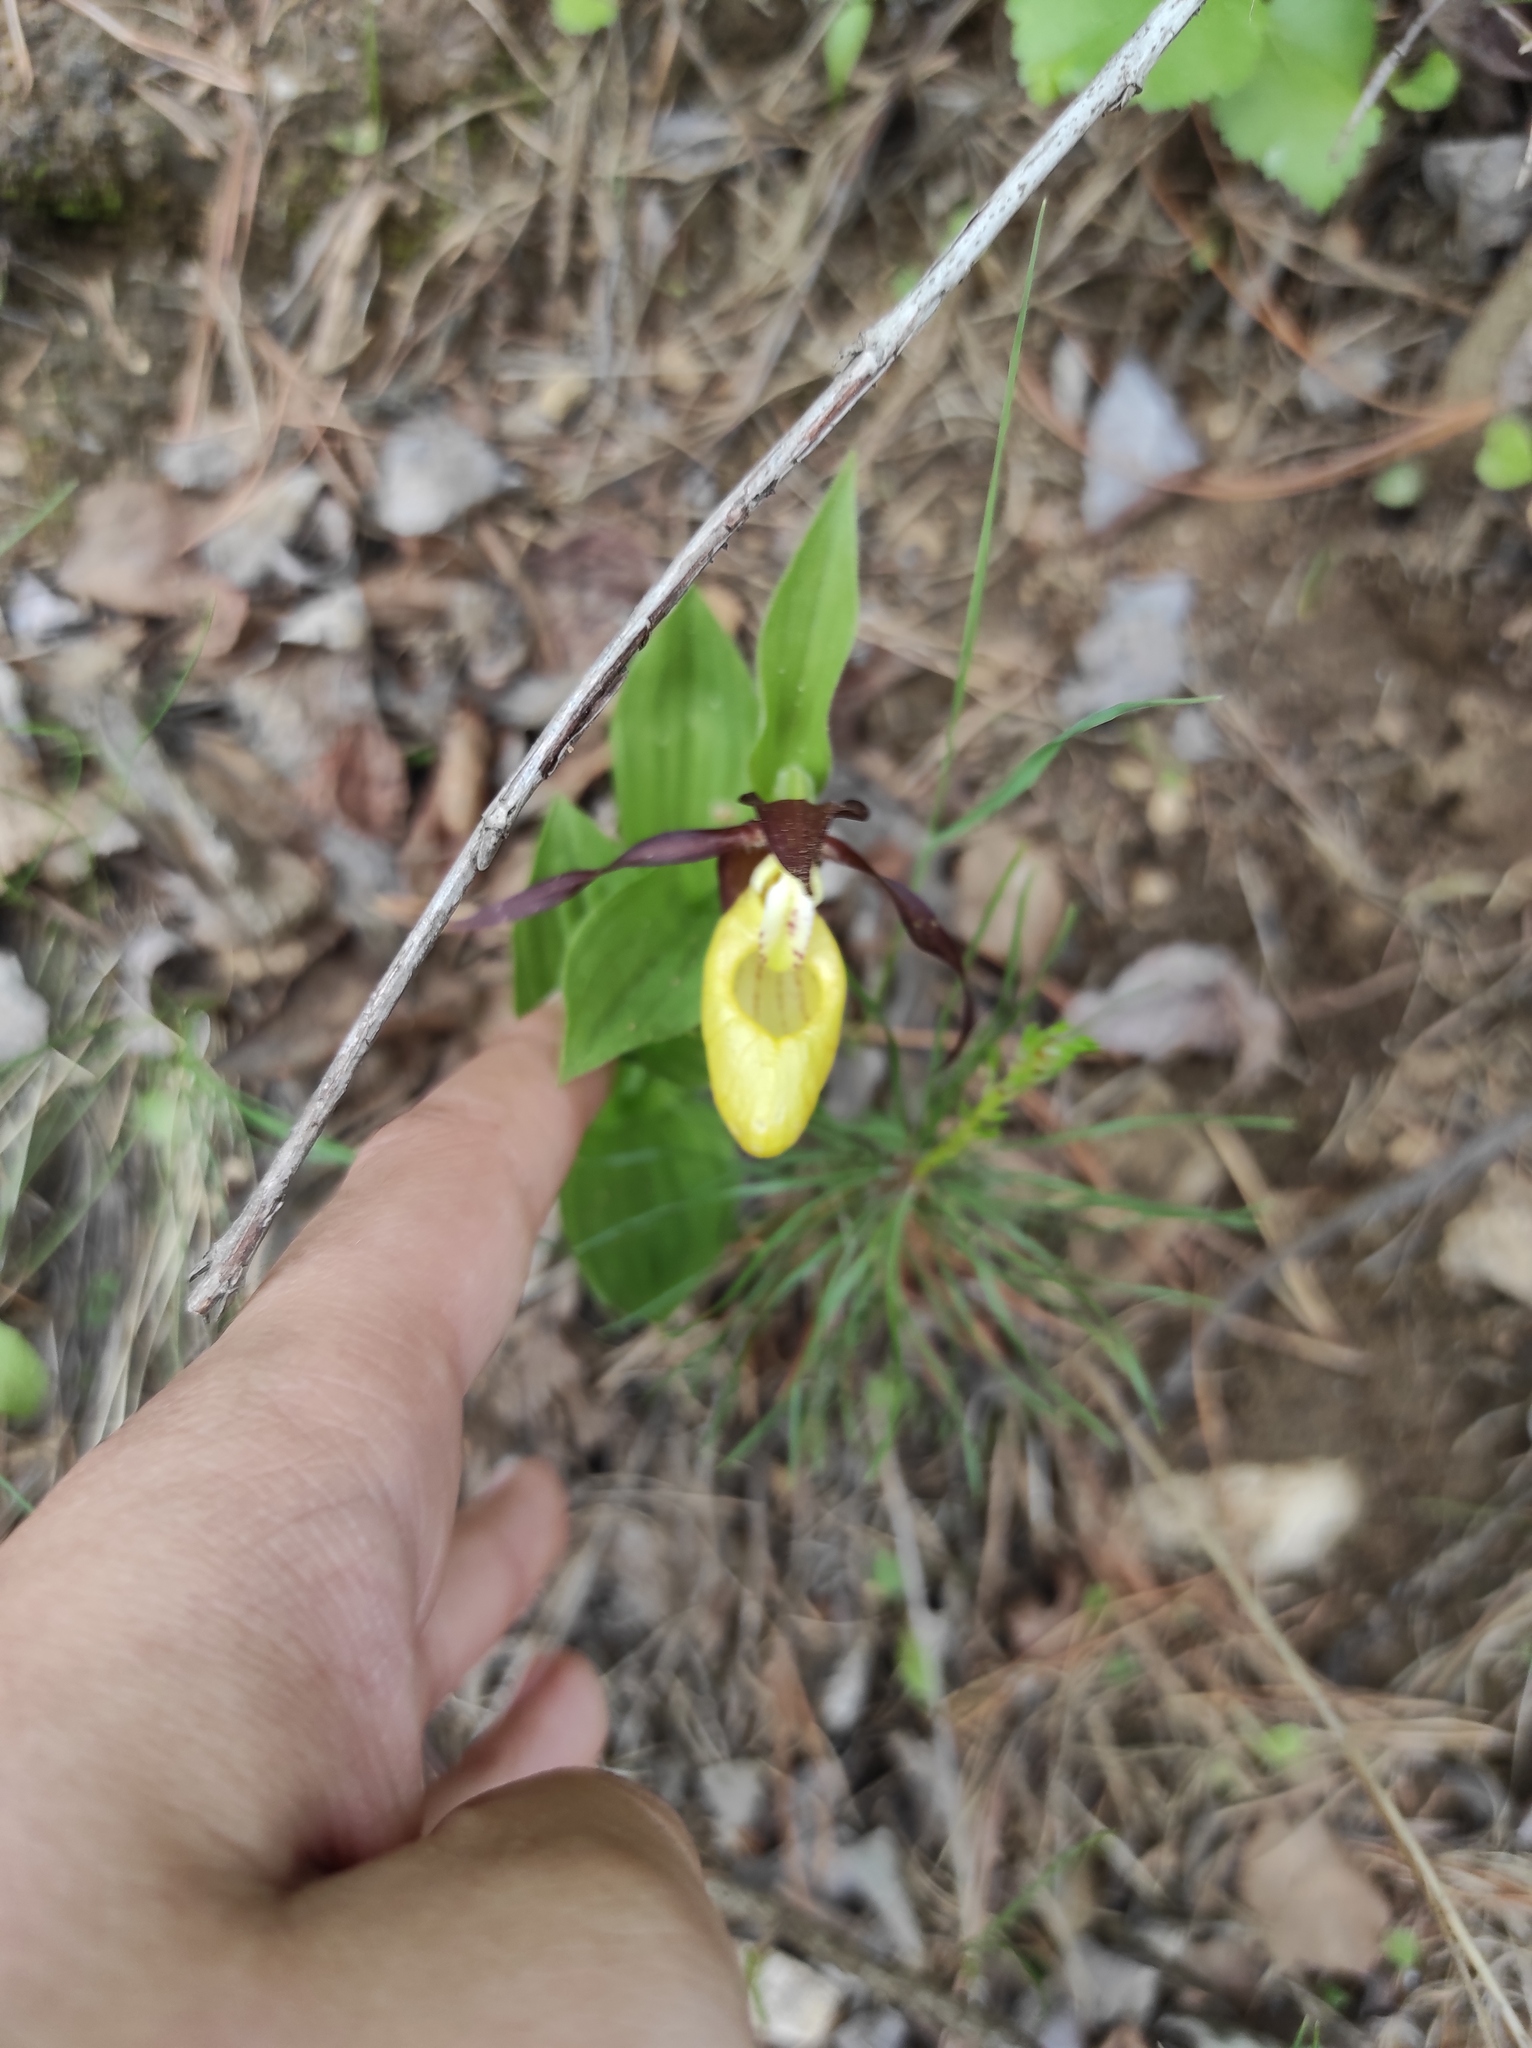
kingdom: Plantae
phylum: Tracheophyta
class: Pinopsida
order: Pinales
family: Pinaceae
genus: Pinus
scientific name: Pinus sylvestris
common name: Scots pine
